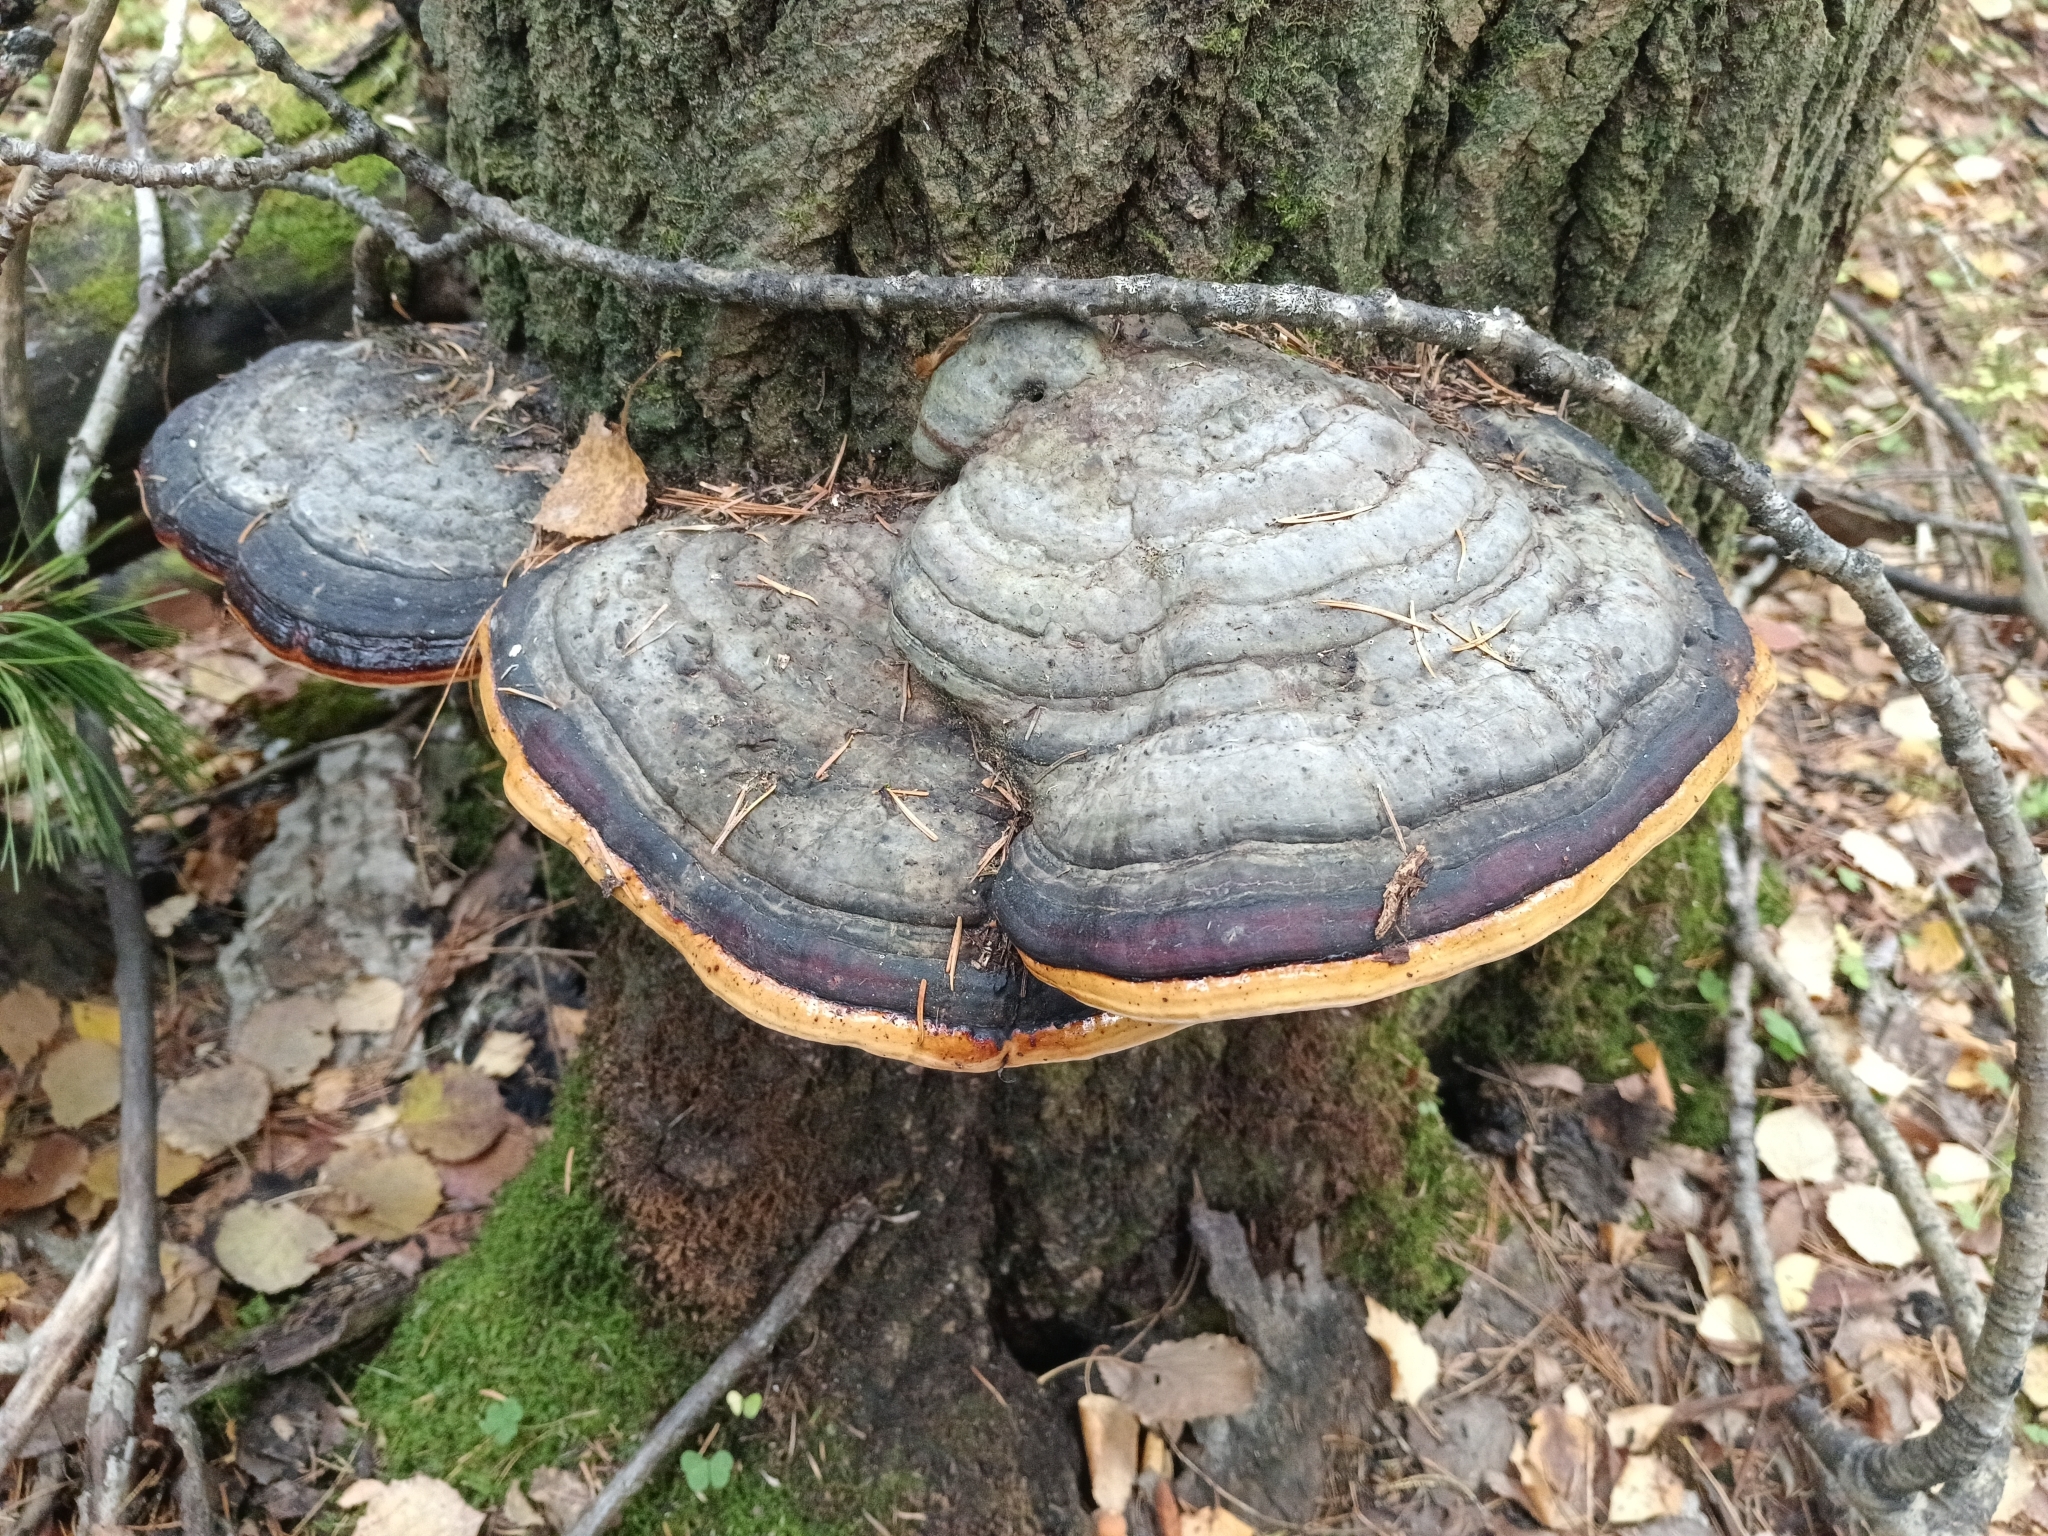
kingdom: Fungi
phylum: Basidiomycota
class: Agaricomycetes
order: Polyporales
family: Fomitopsidaceae
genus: Fomitopsis
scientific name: Fomitopsis pinicola
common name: Red-belted bracket
